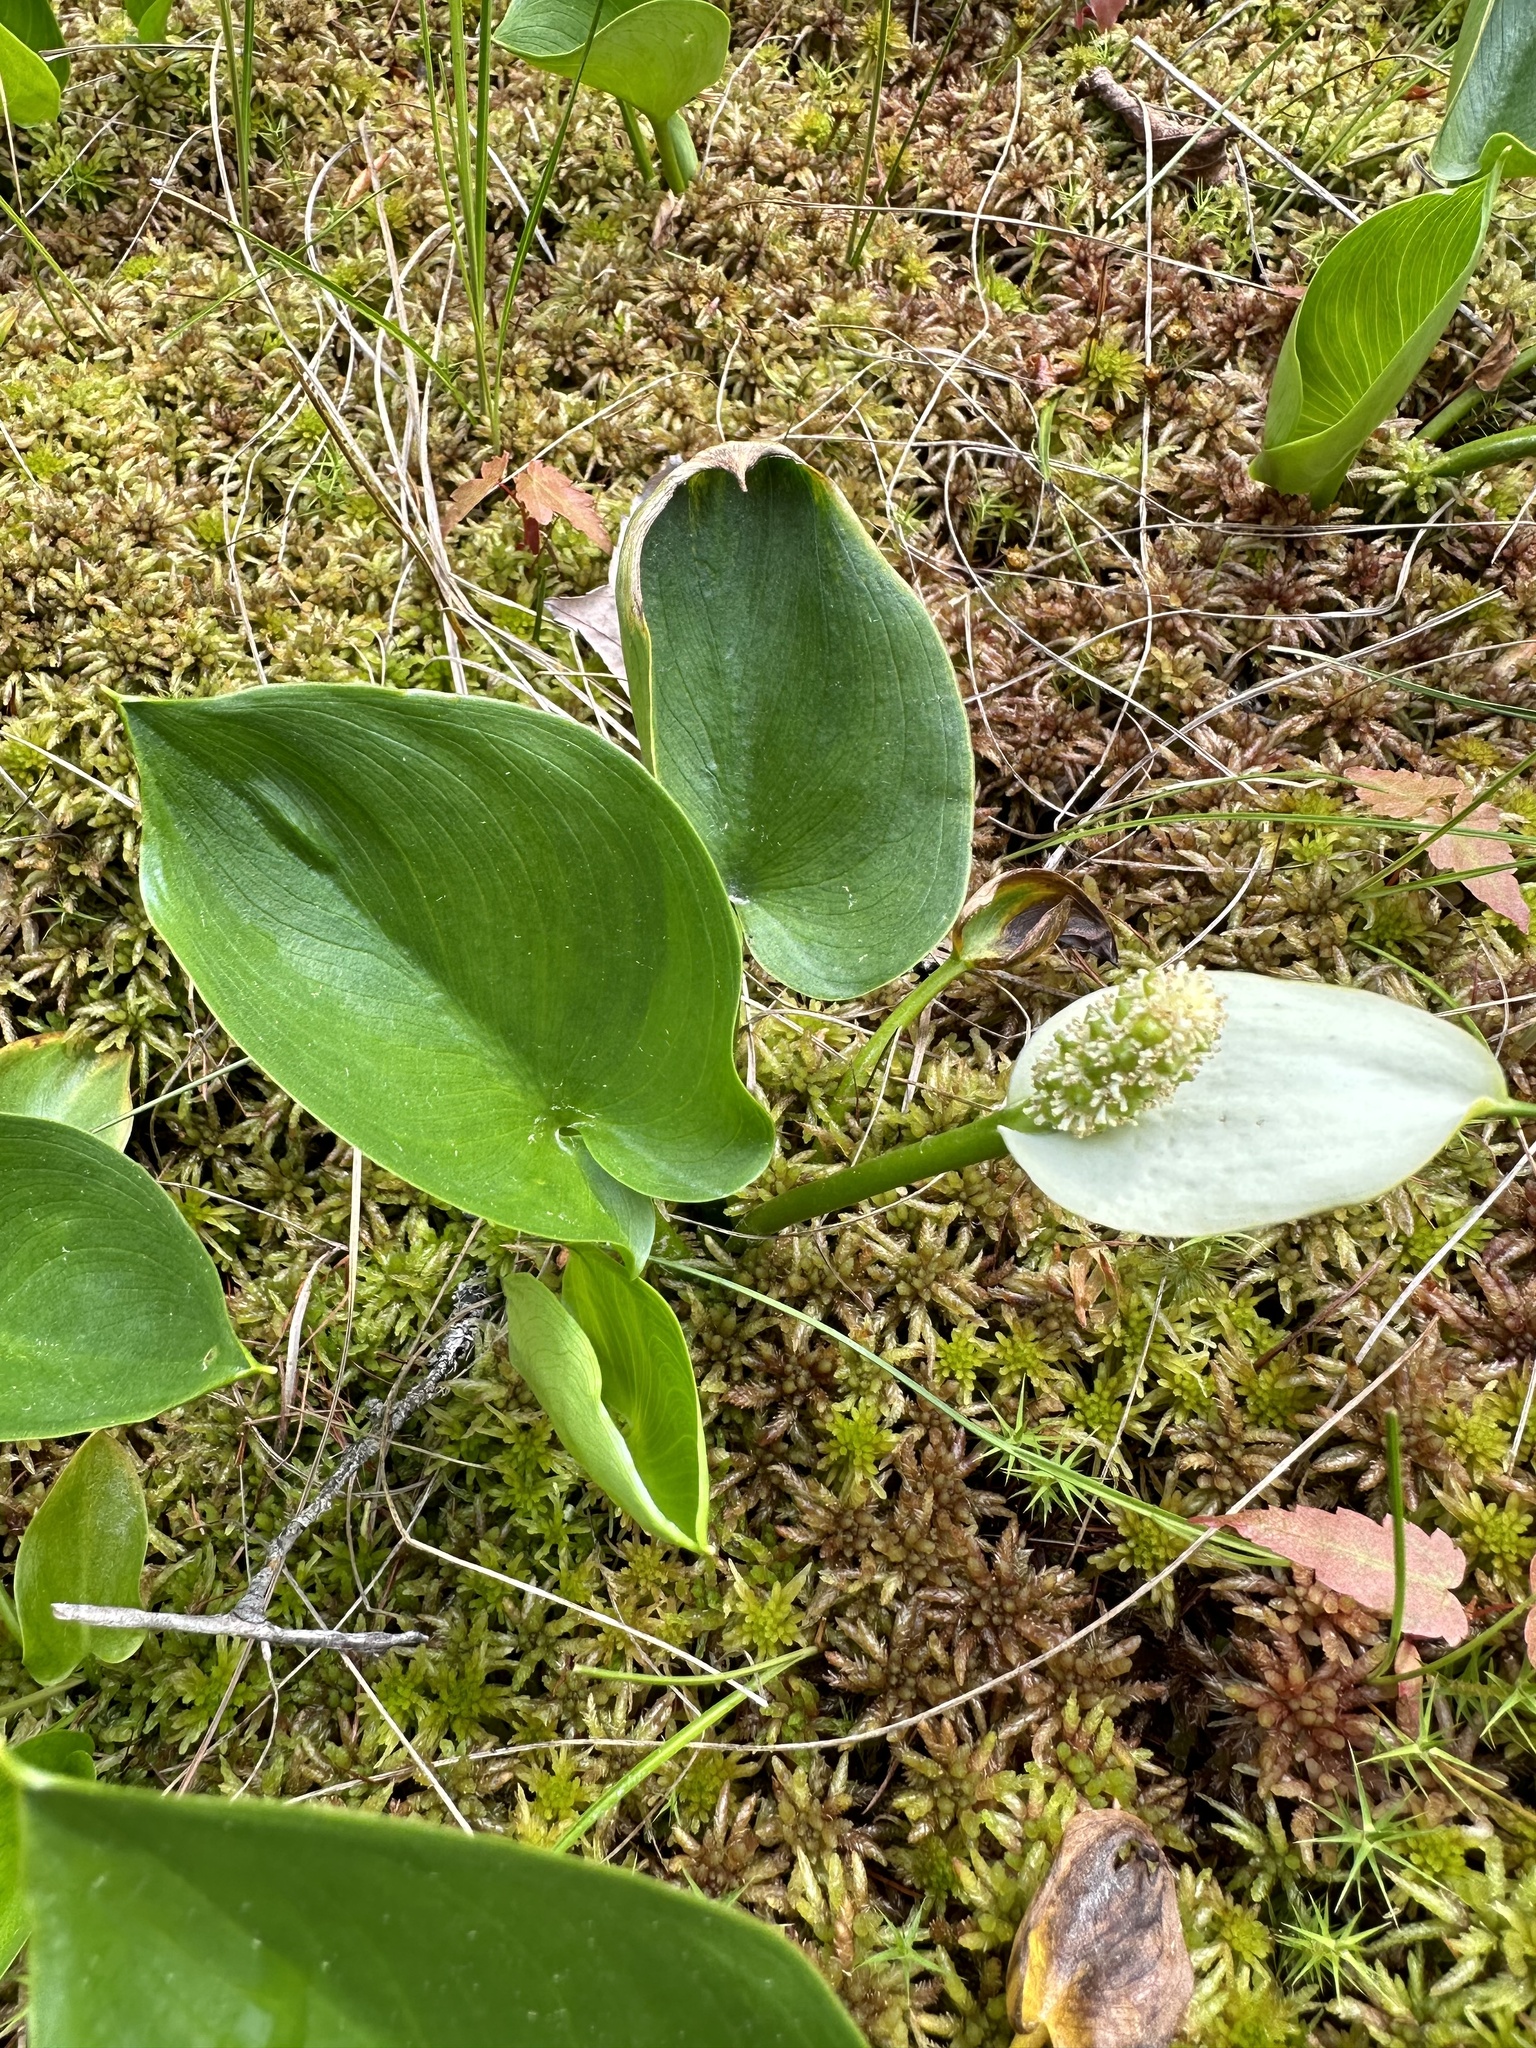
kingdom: Plantae
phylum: Tracheophyta
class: Liliopsida
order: Alismatales
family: Araceae
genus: Calla
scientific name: Calla palustris
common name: Bog arum
